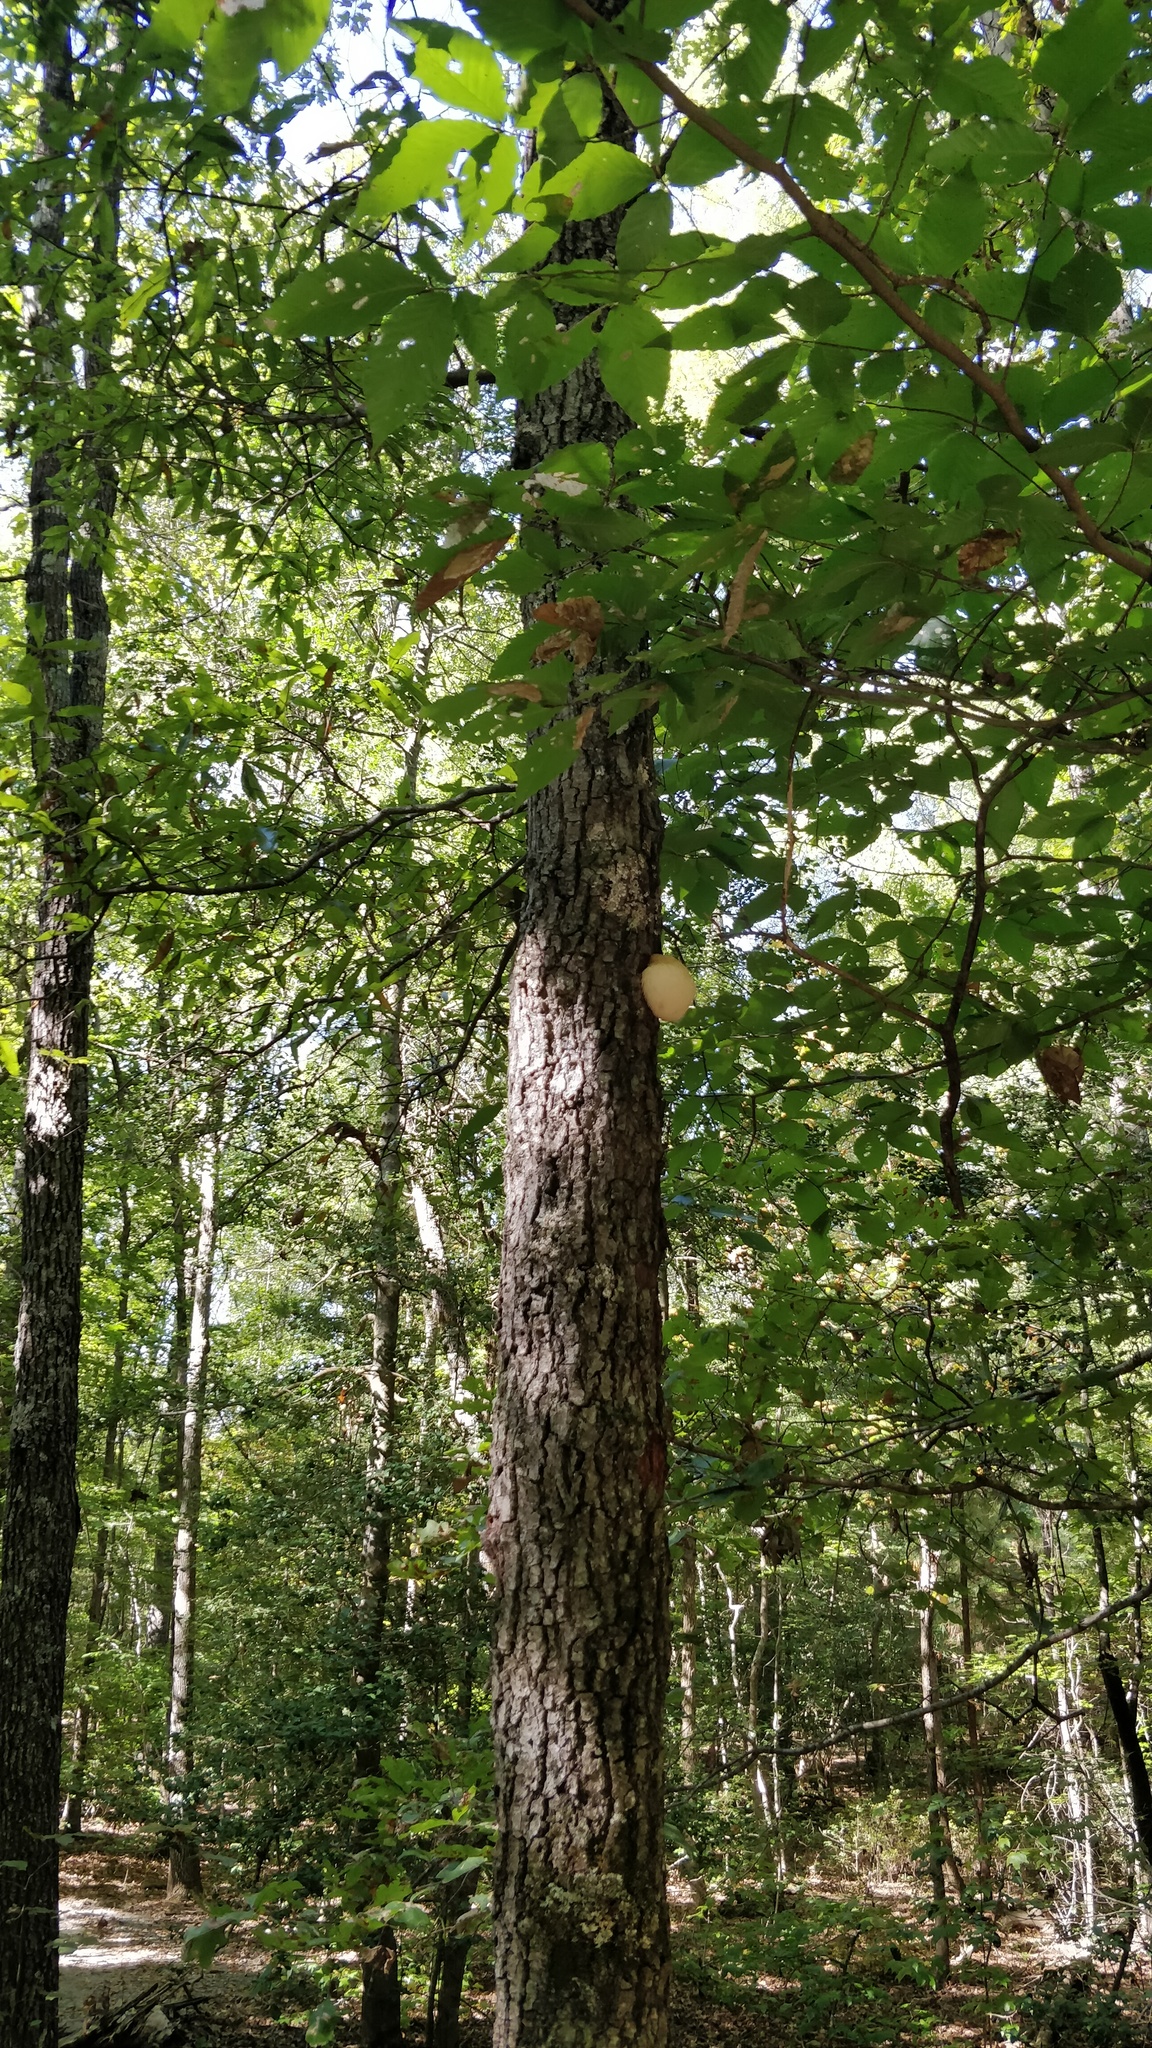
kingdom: Fungi
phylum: Basidiomycota
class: Agaricomycetes
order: Russulales
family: Hericiaceae
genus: Hericium
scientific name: Hericium erinaceus
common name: Bearded tooth
